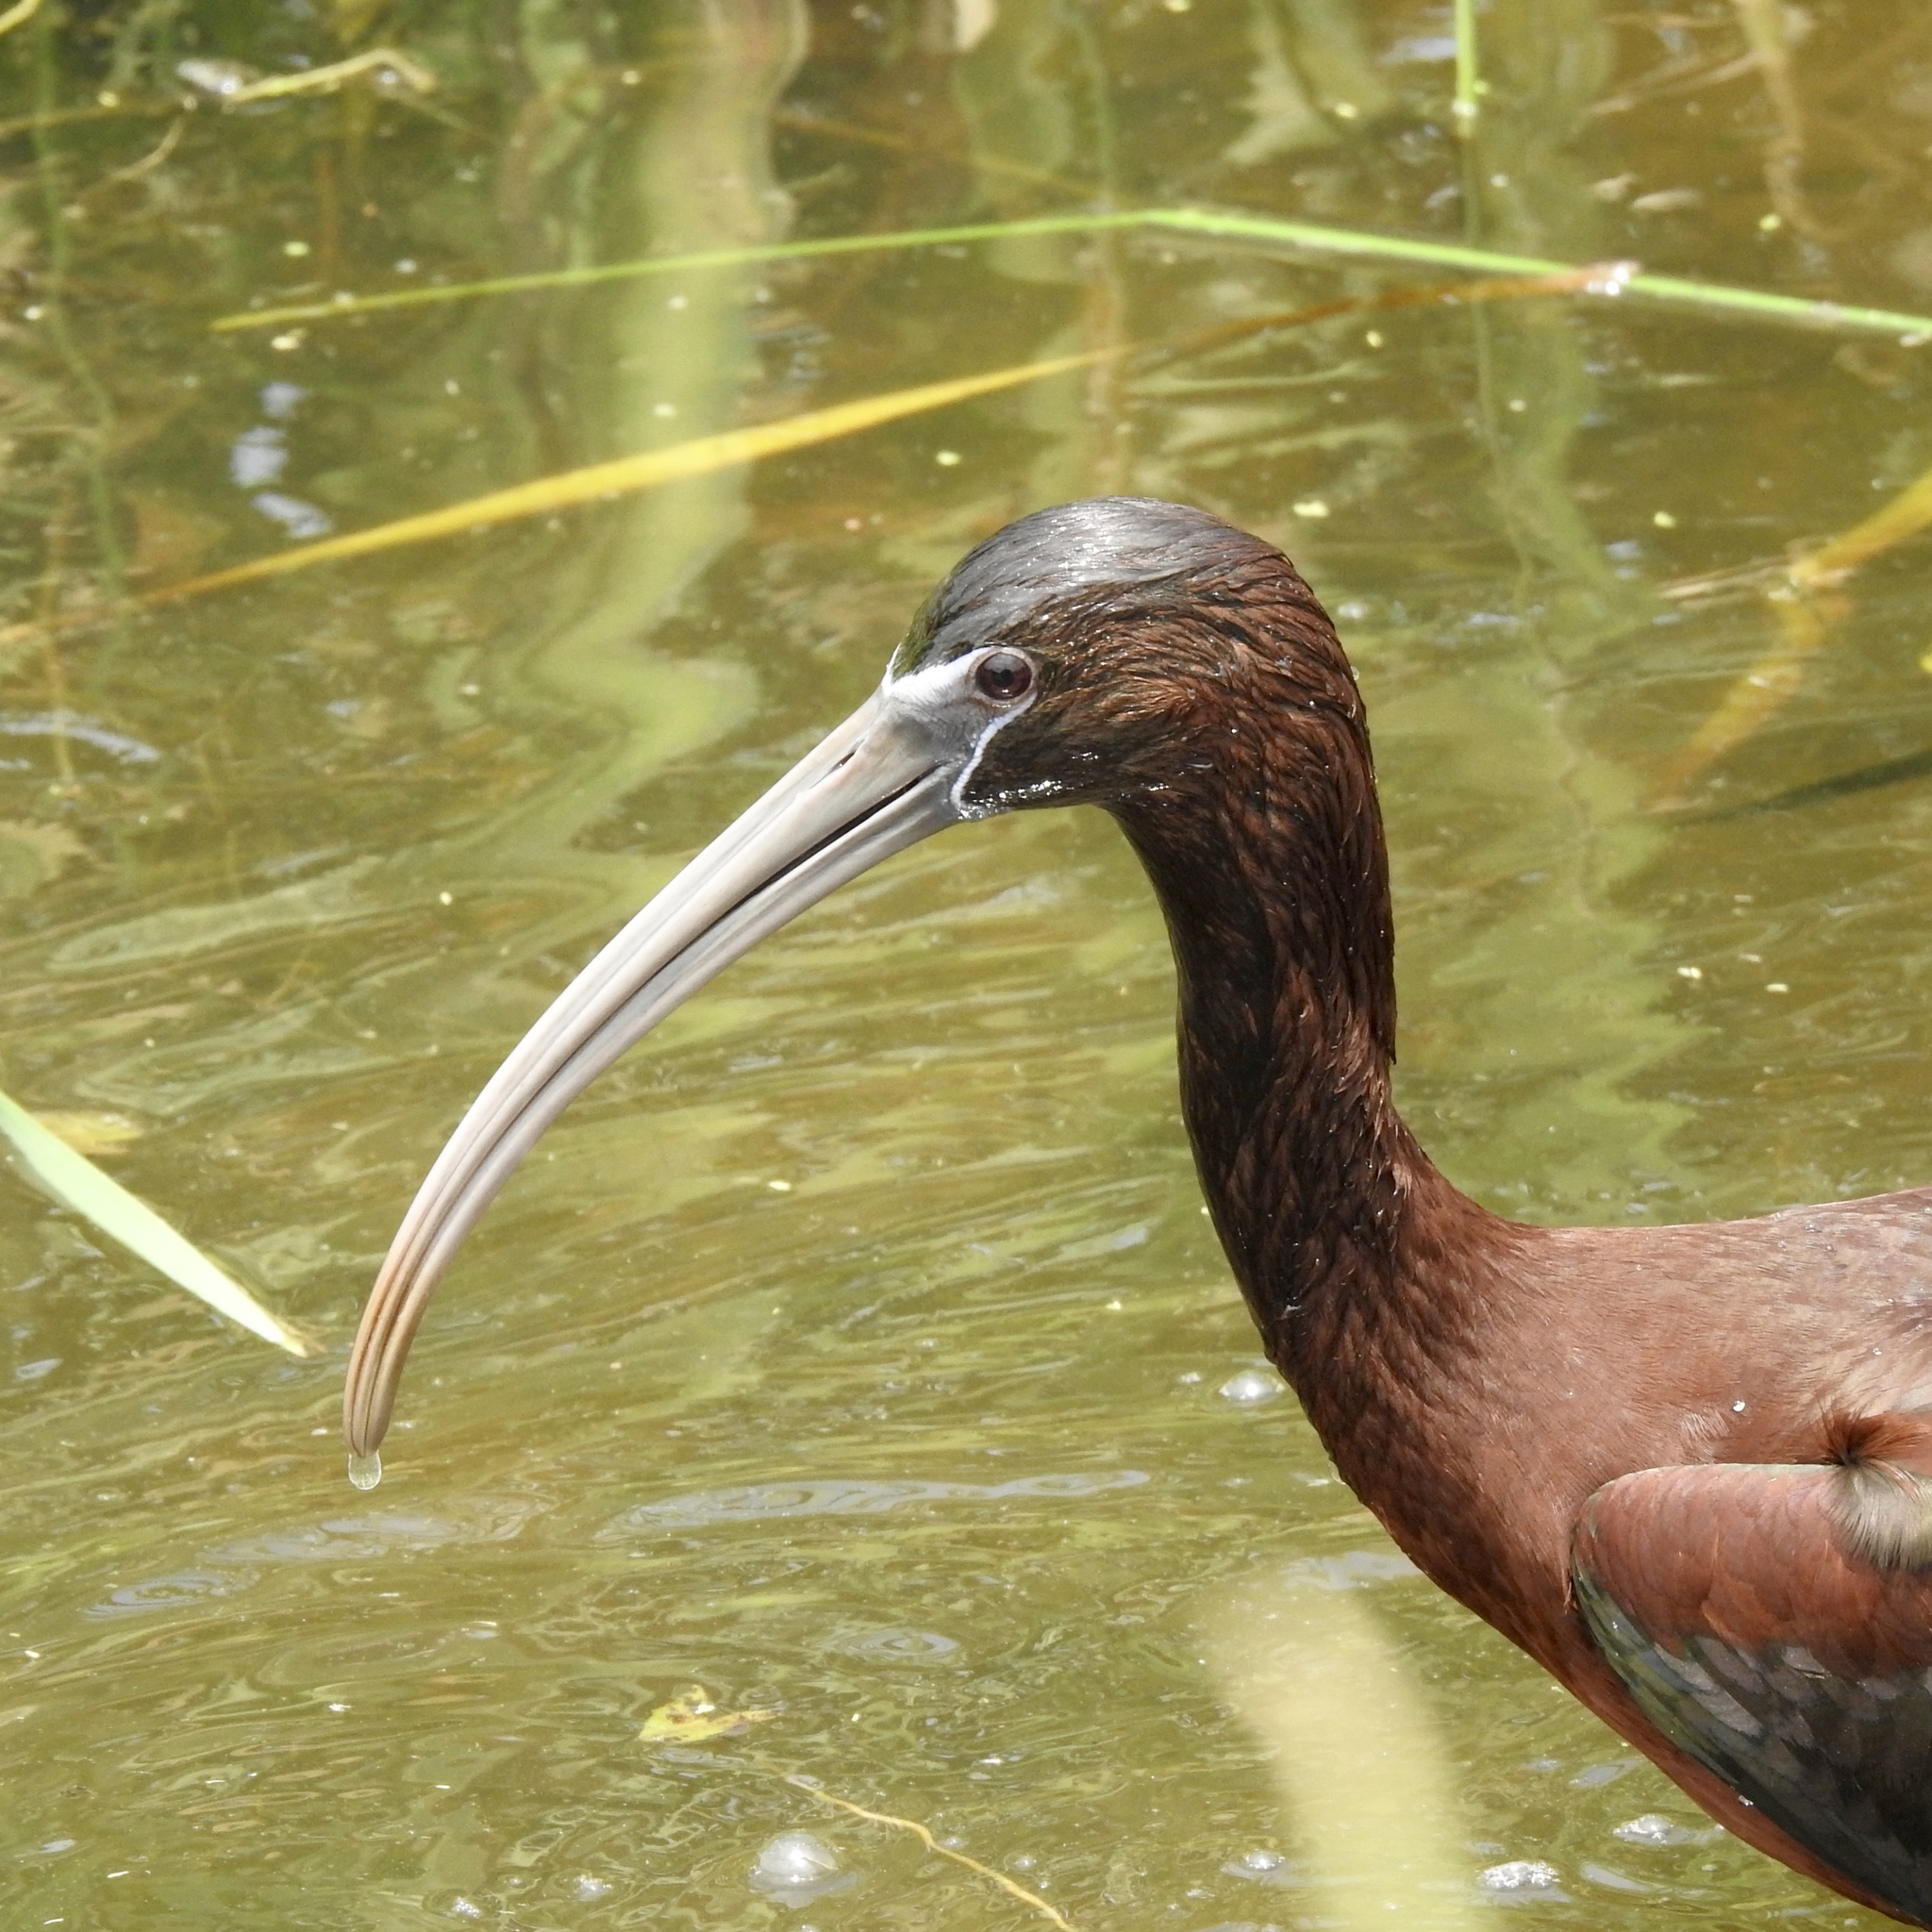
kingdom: Animalia
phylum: Chordata
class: Aves
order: Pelecaniformes
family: Threskiornithidae
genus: Plegadis
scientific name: Plegadis falcinellus
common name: Glossy ibis
